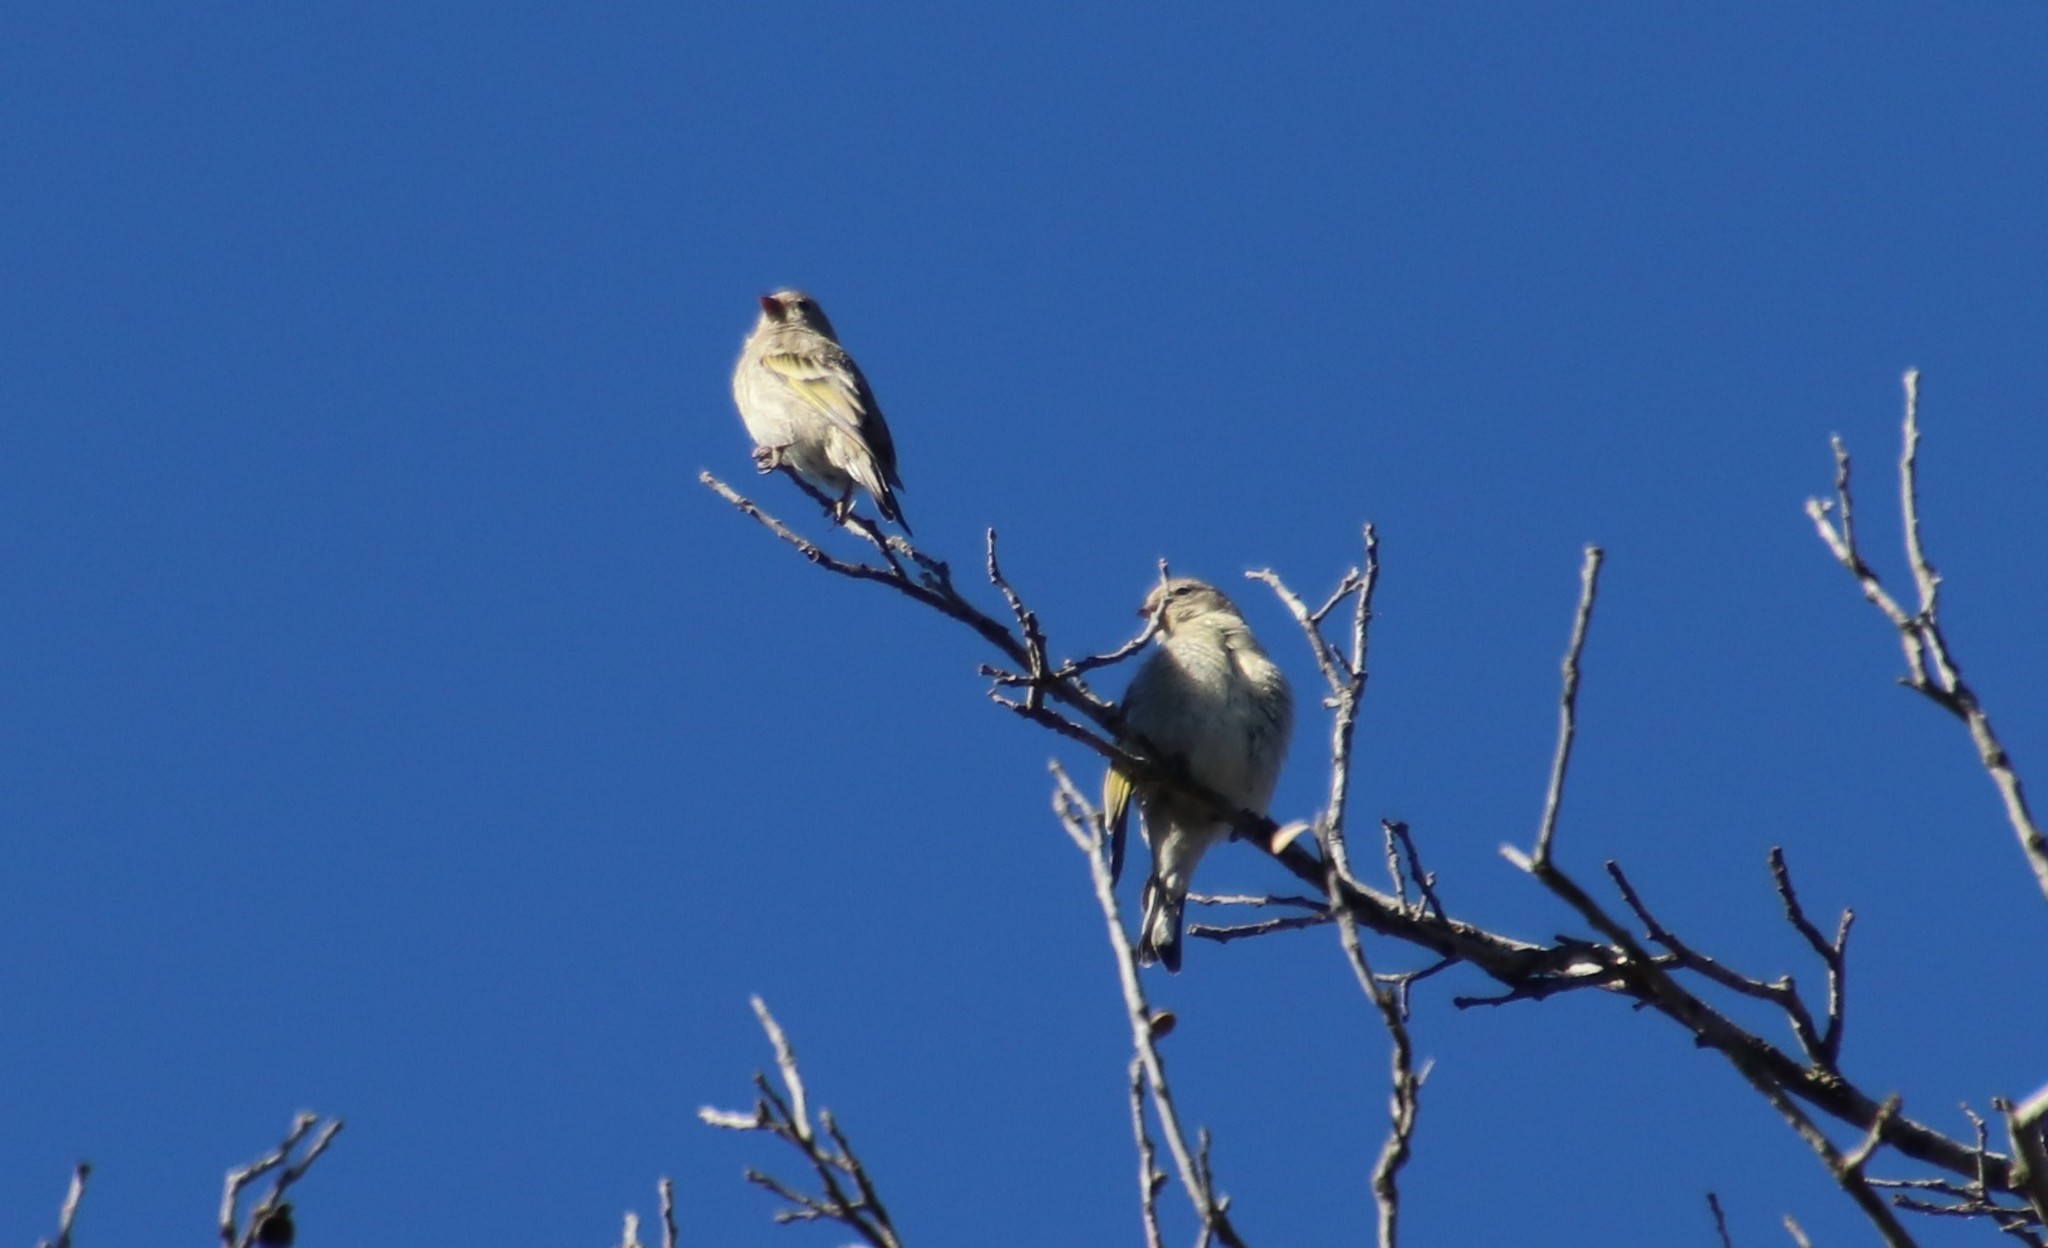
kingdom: Animalia
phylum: Chordata
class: Aves
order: Passeriformes
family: Fringillidae
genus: Spinus
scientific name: Spinus lawrencei
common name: Lawrence's goldfinch
